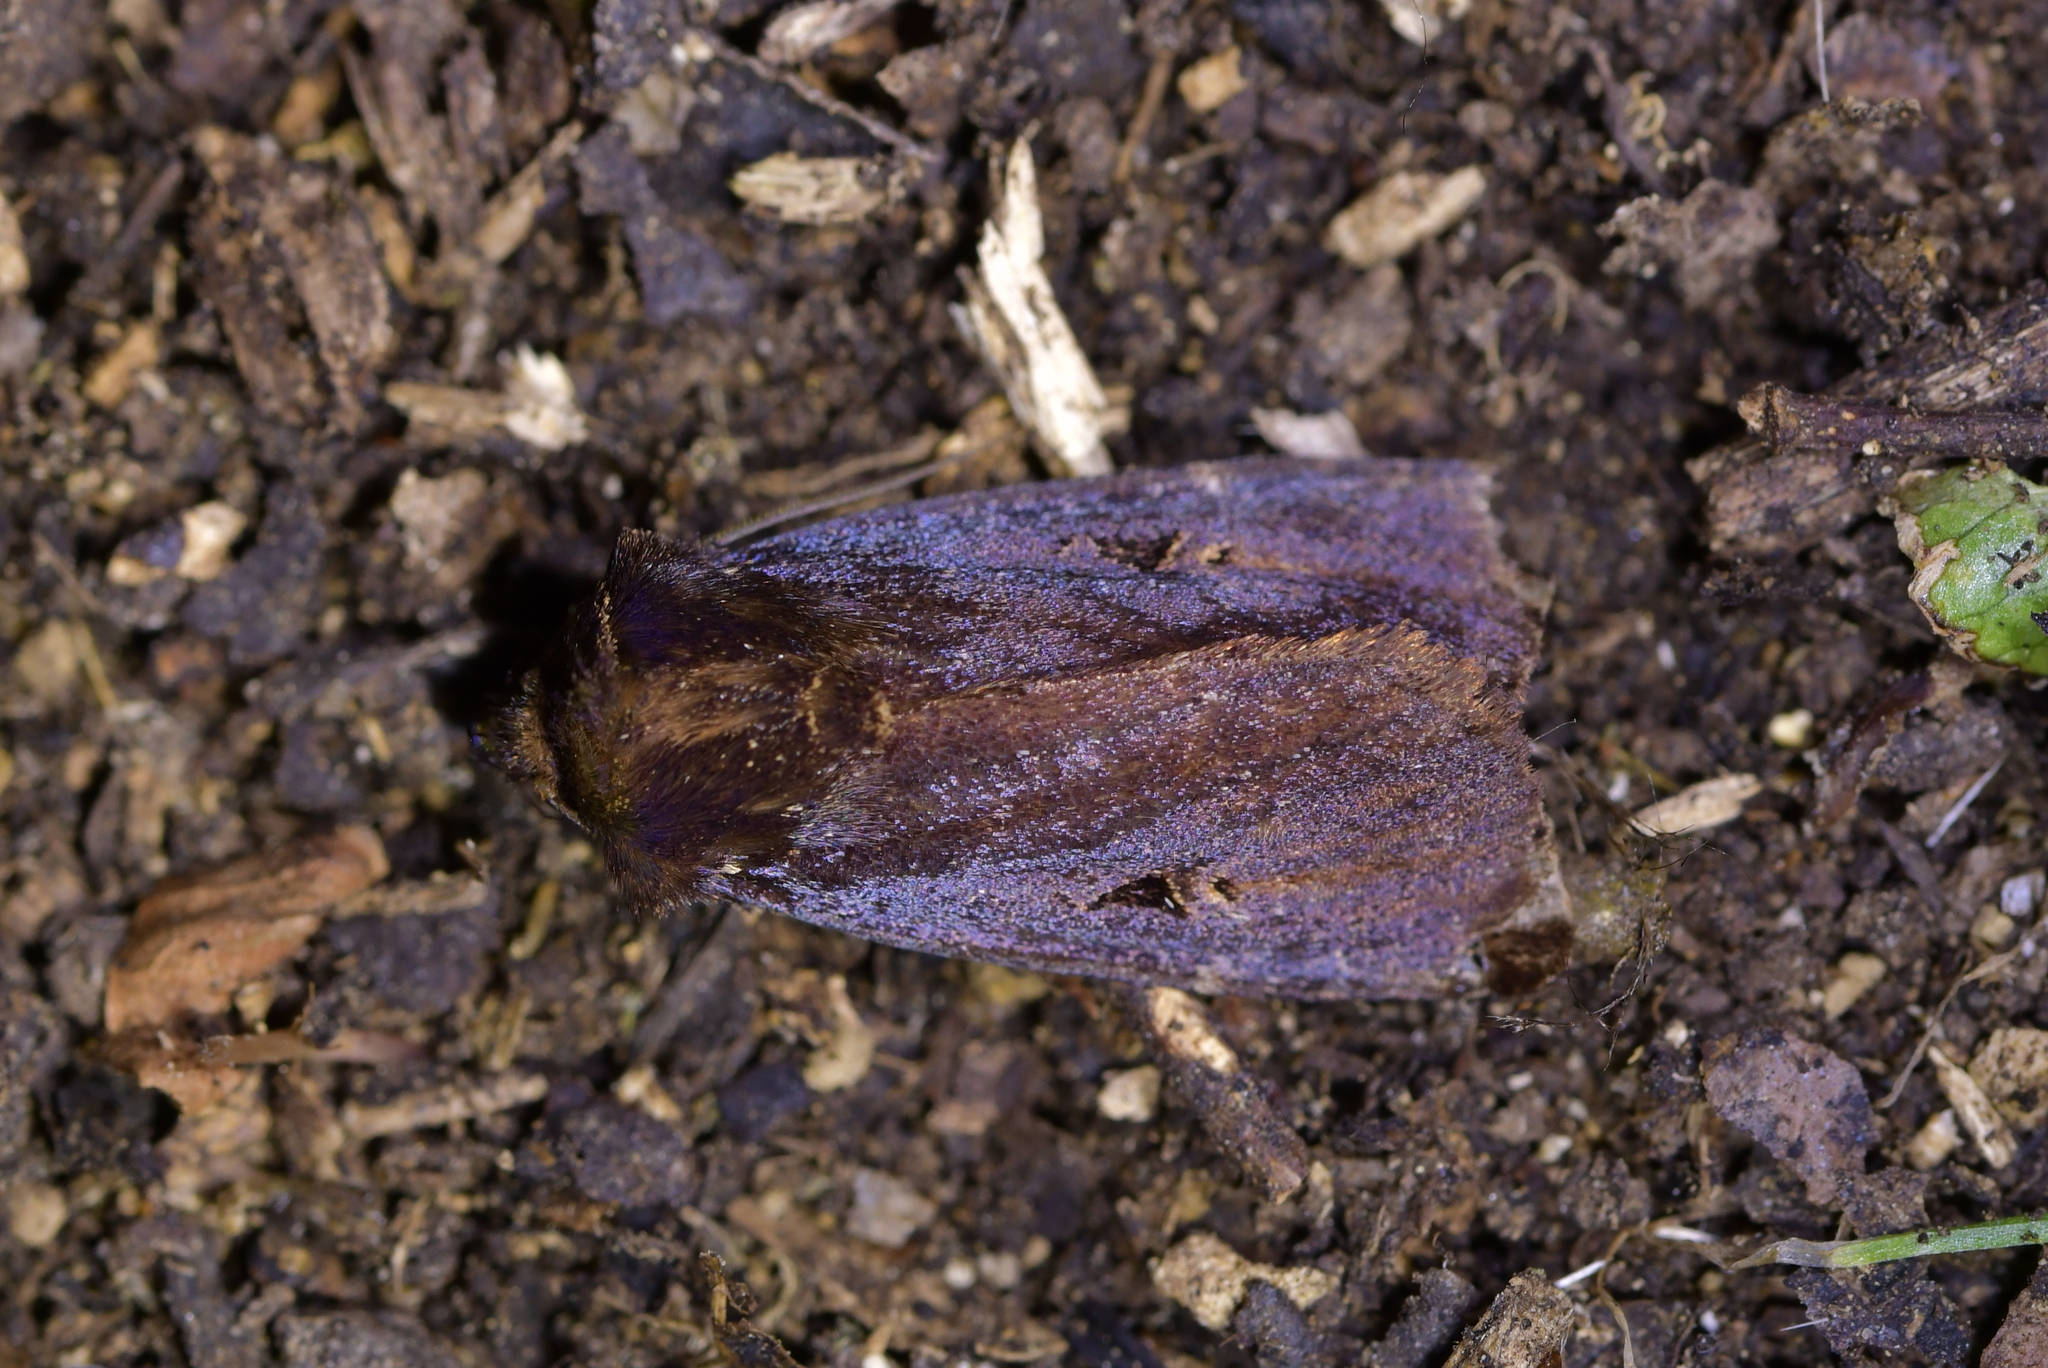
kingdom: Animalia
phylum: Arthropoda
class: Insecta
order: Lepidoptera
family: Noctuidae
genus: Austramathes
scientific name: Austramathes purpurea
